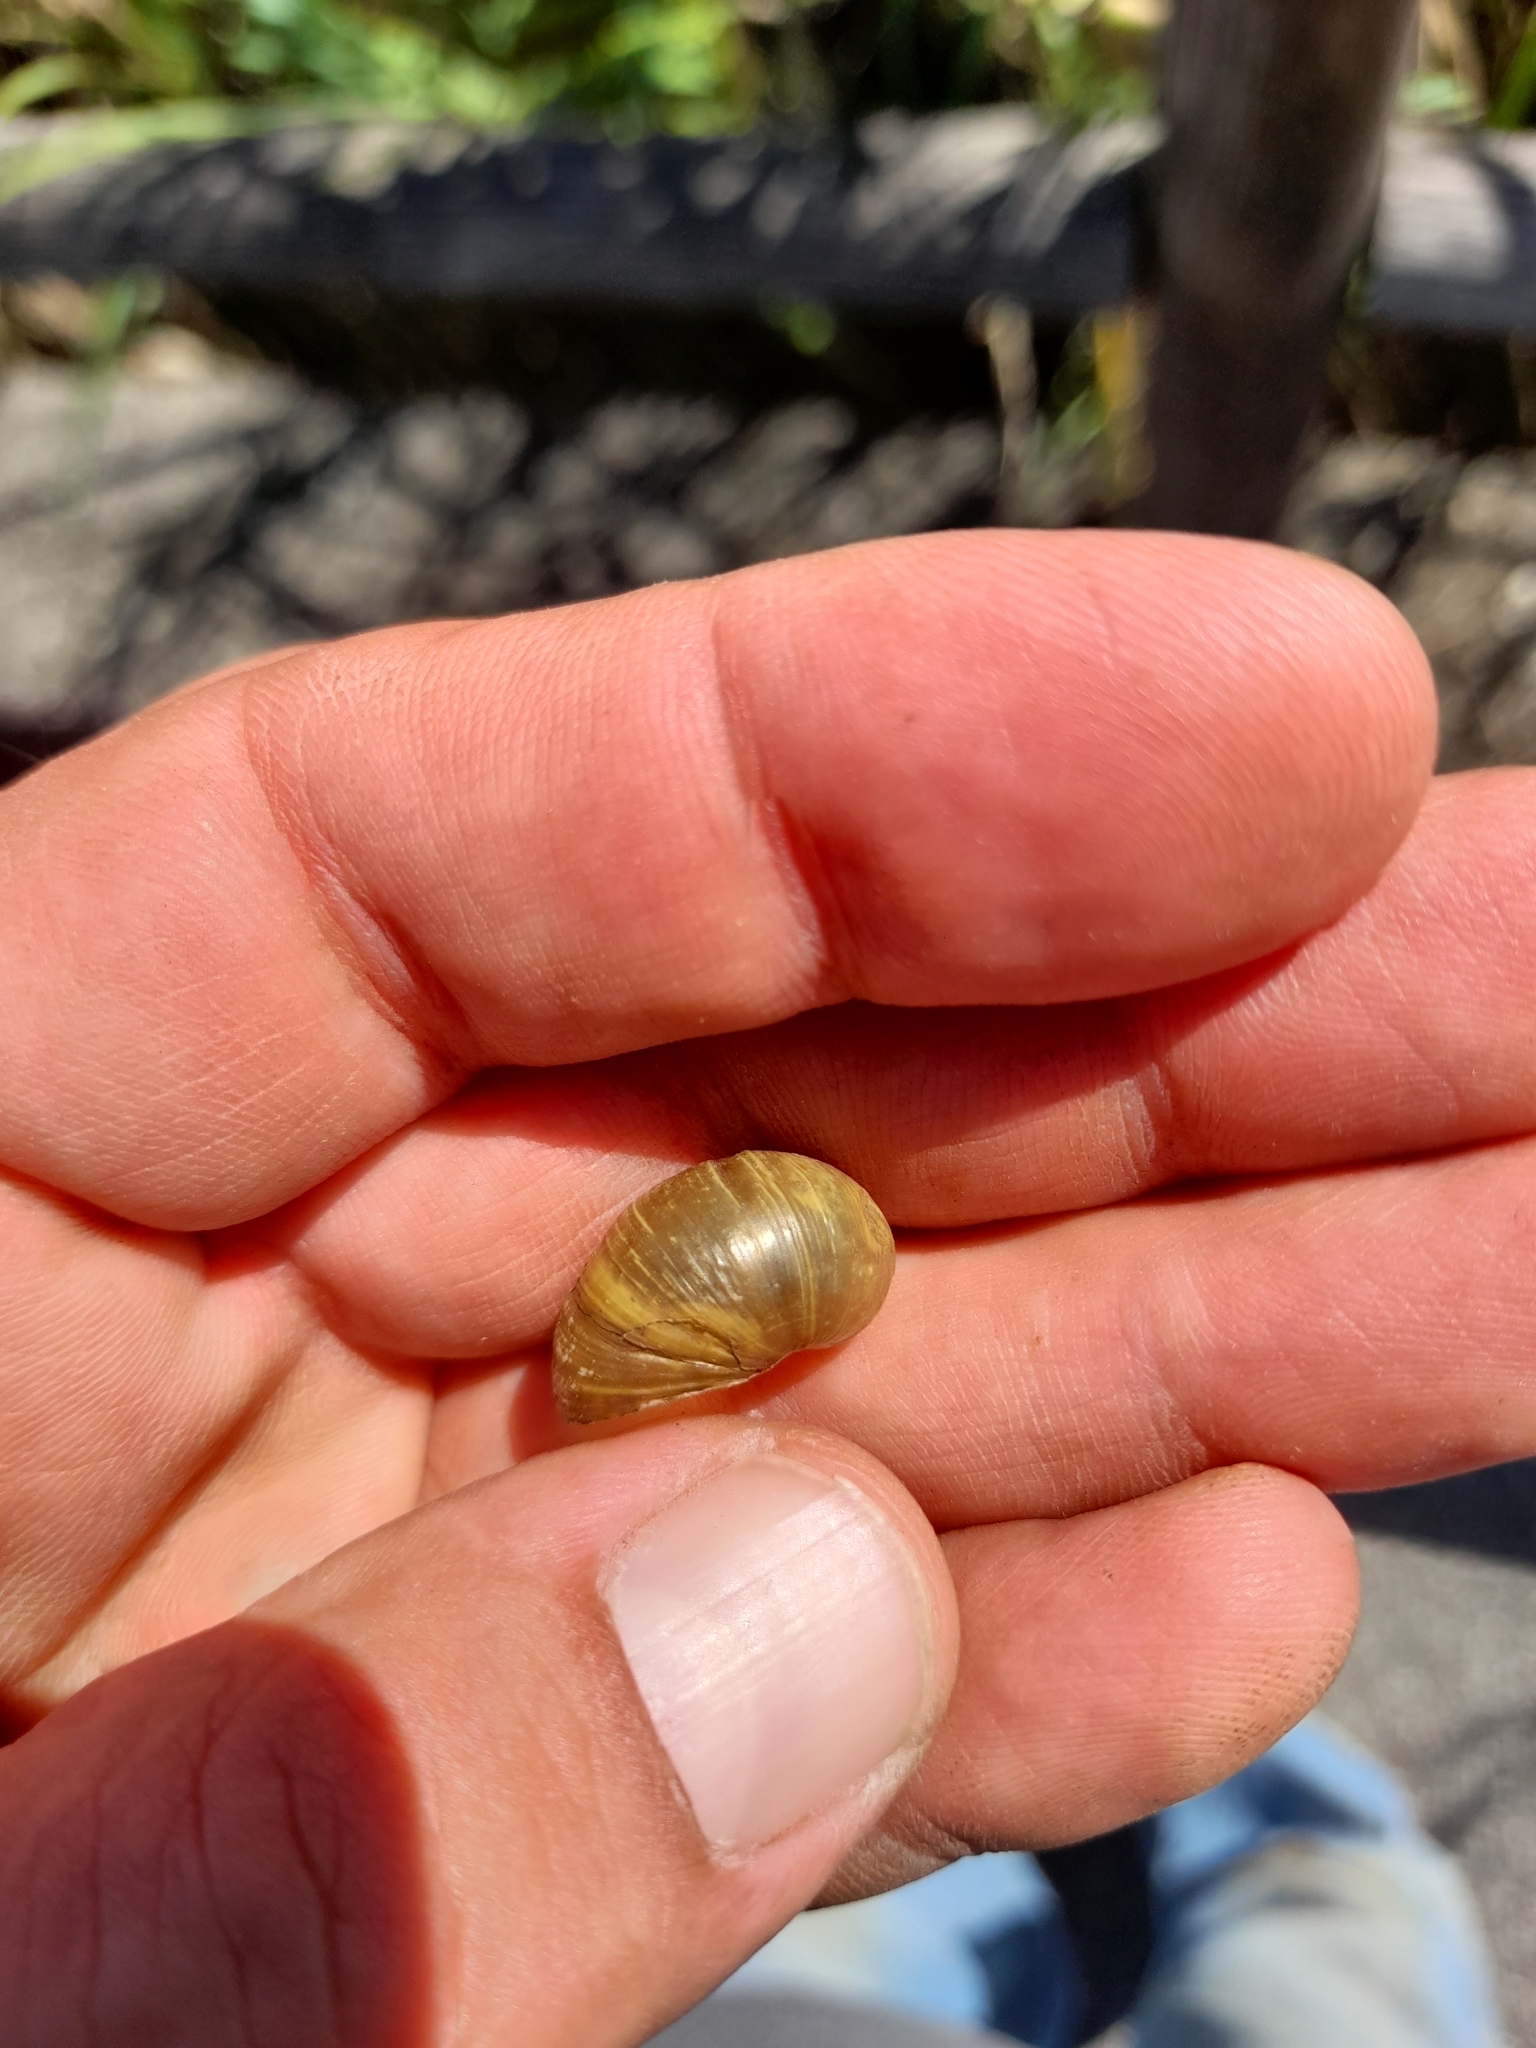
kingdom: Animalia
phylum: Mollusca
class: Gastropoda
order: Stylommatophora
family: Helicidae
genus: Cantareus
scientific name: Cantareus apertus
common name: Green gardensnail
